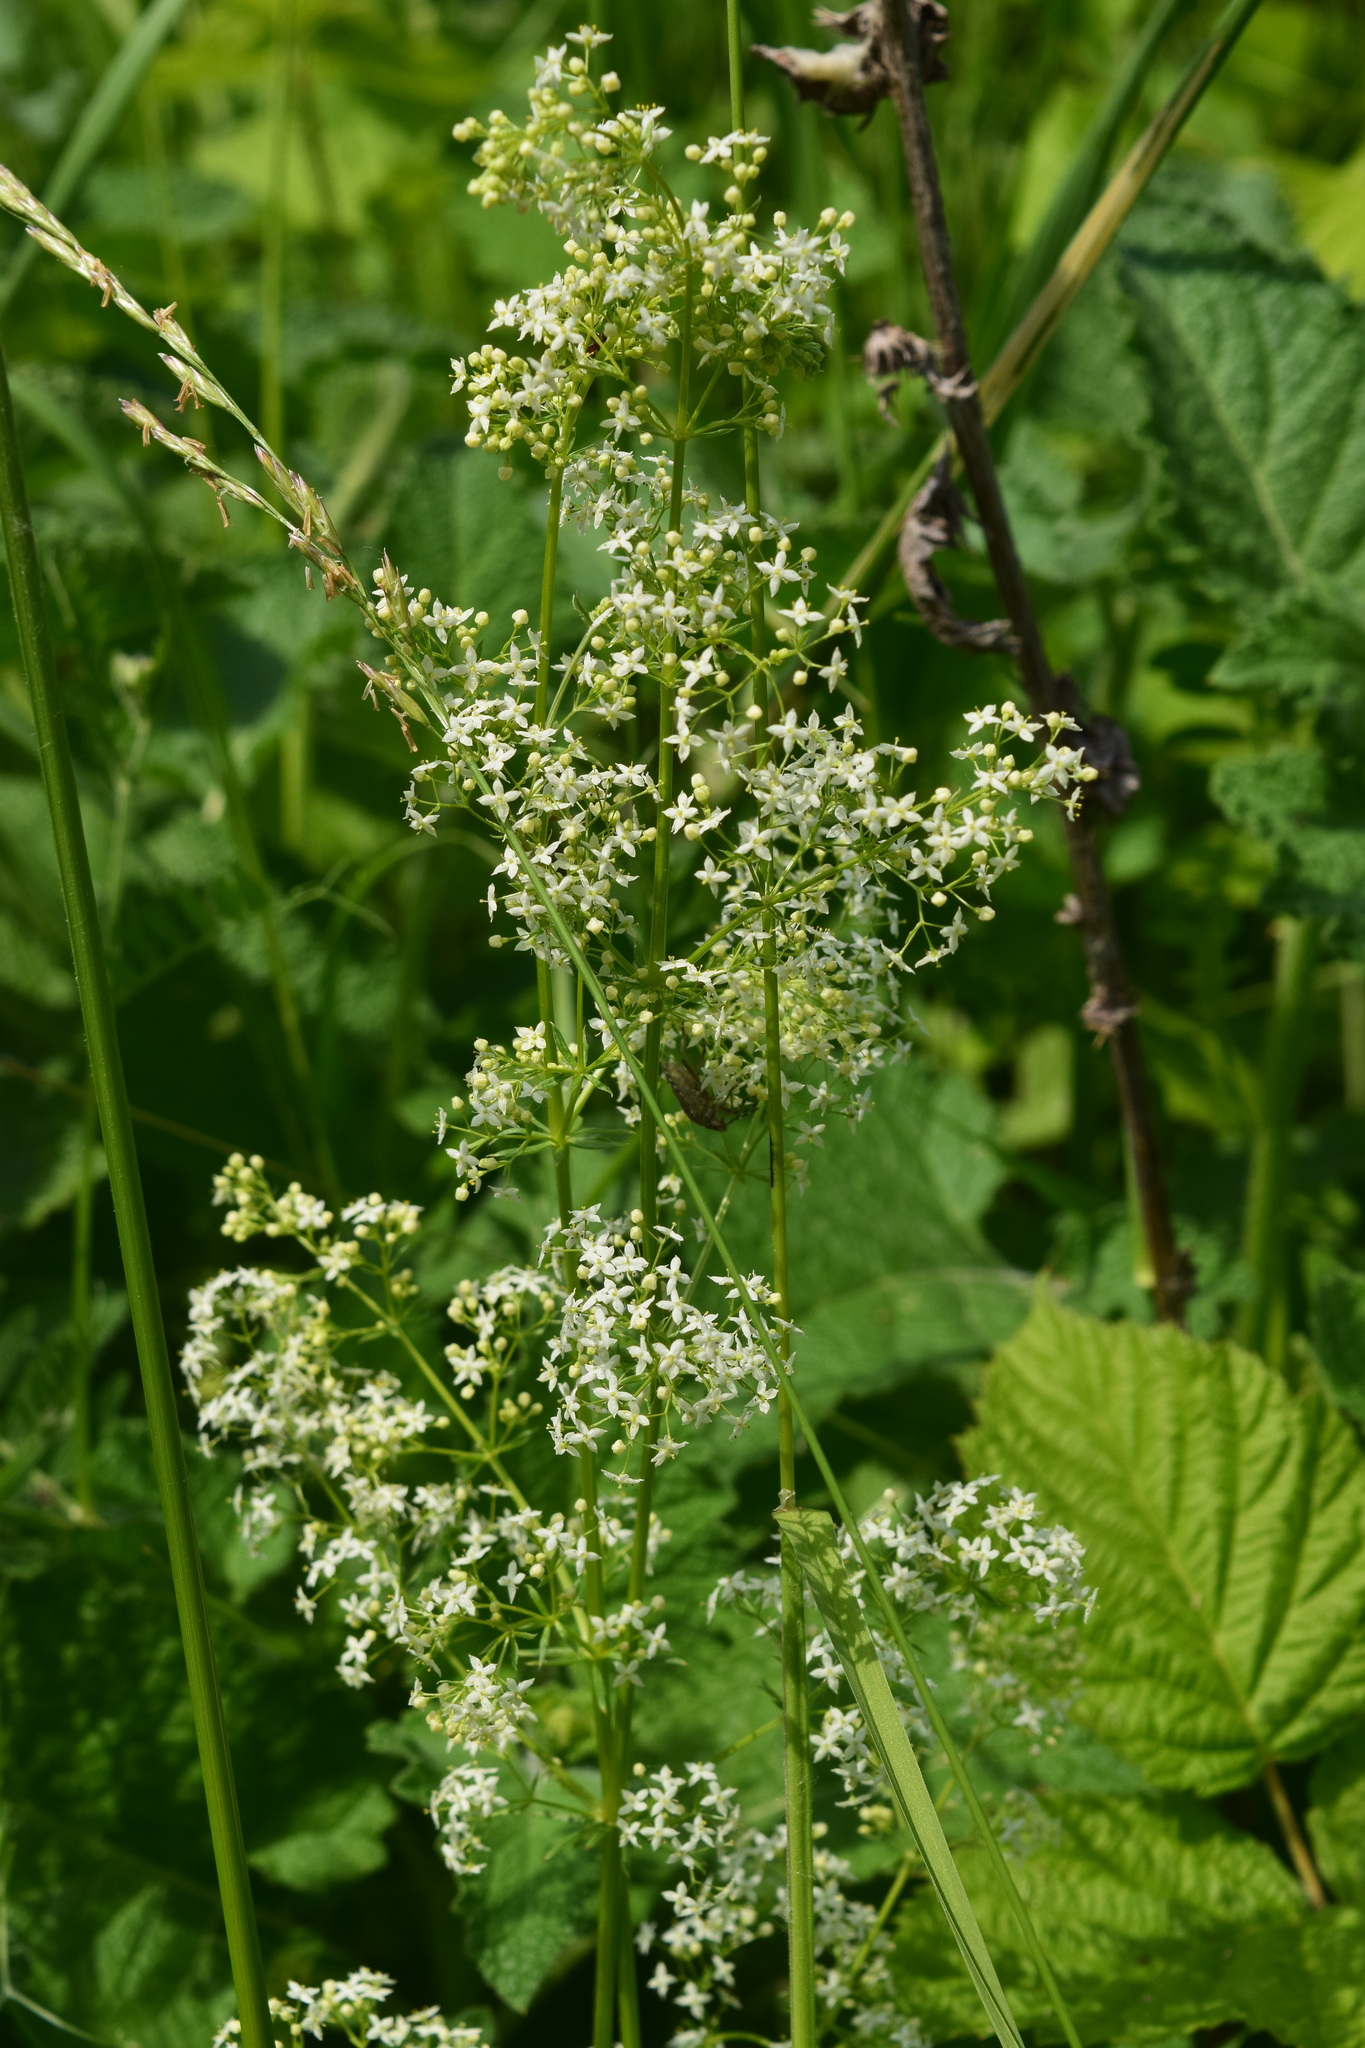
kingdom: Plantae
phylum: Tracheophyta
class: Magnoliopsida
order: Gentianales
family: Rubiaceae
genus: Galium
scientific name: Galium mollugo
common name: Hedge bedstraw
